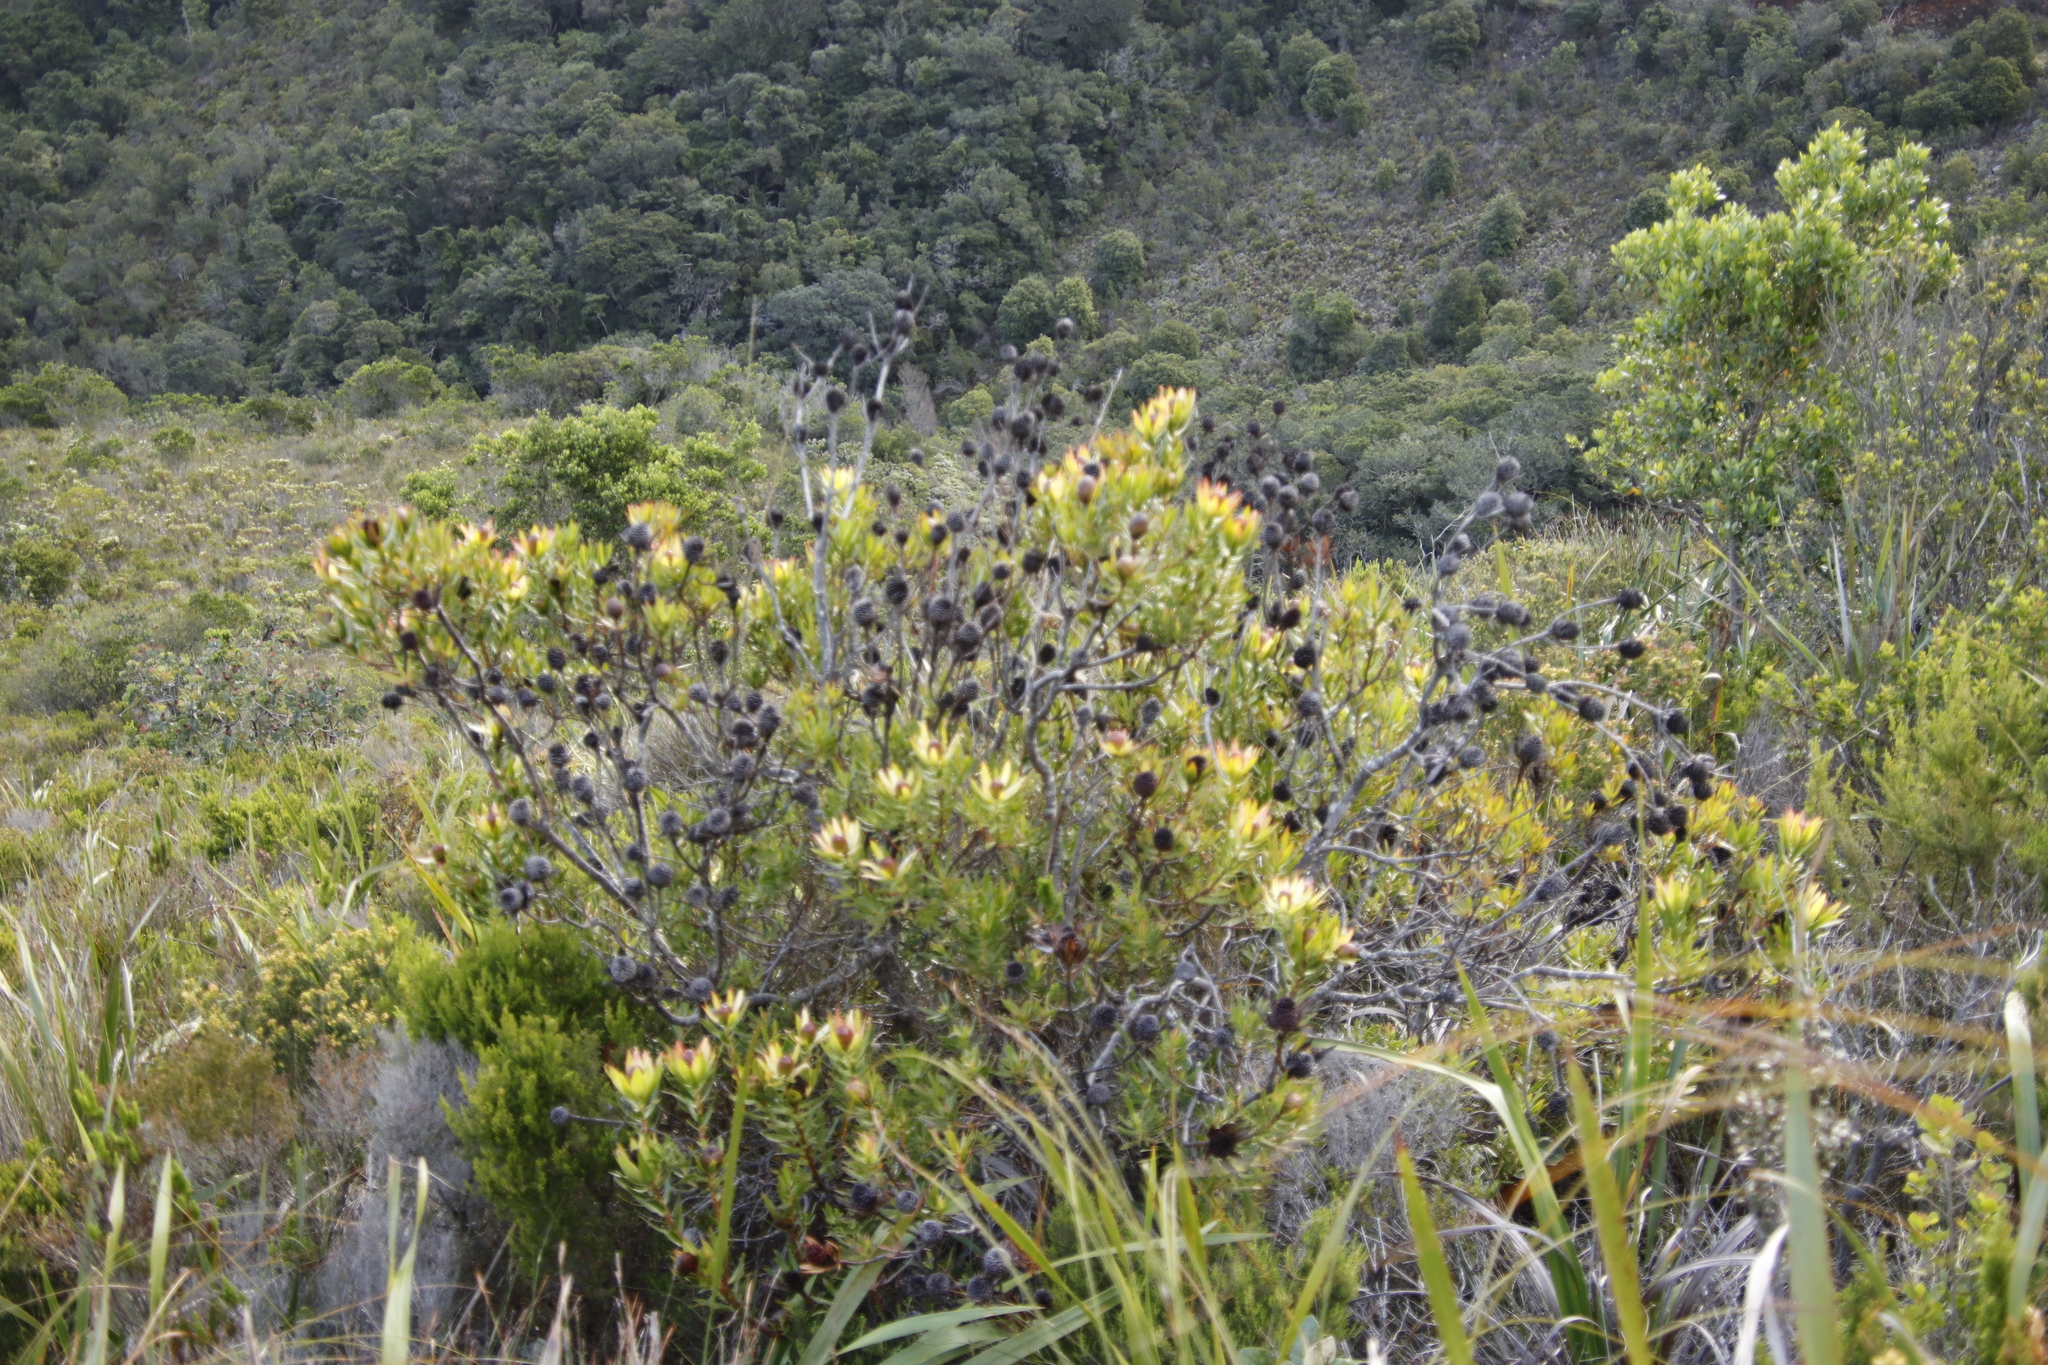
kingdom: Plantae
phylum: Tracheophyta
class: Magnoliopsida
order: Proteales
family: Proteaceae
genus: Leucadendron
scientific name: Leucadendron spissifolium
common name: Spear-leaf conebush
